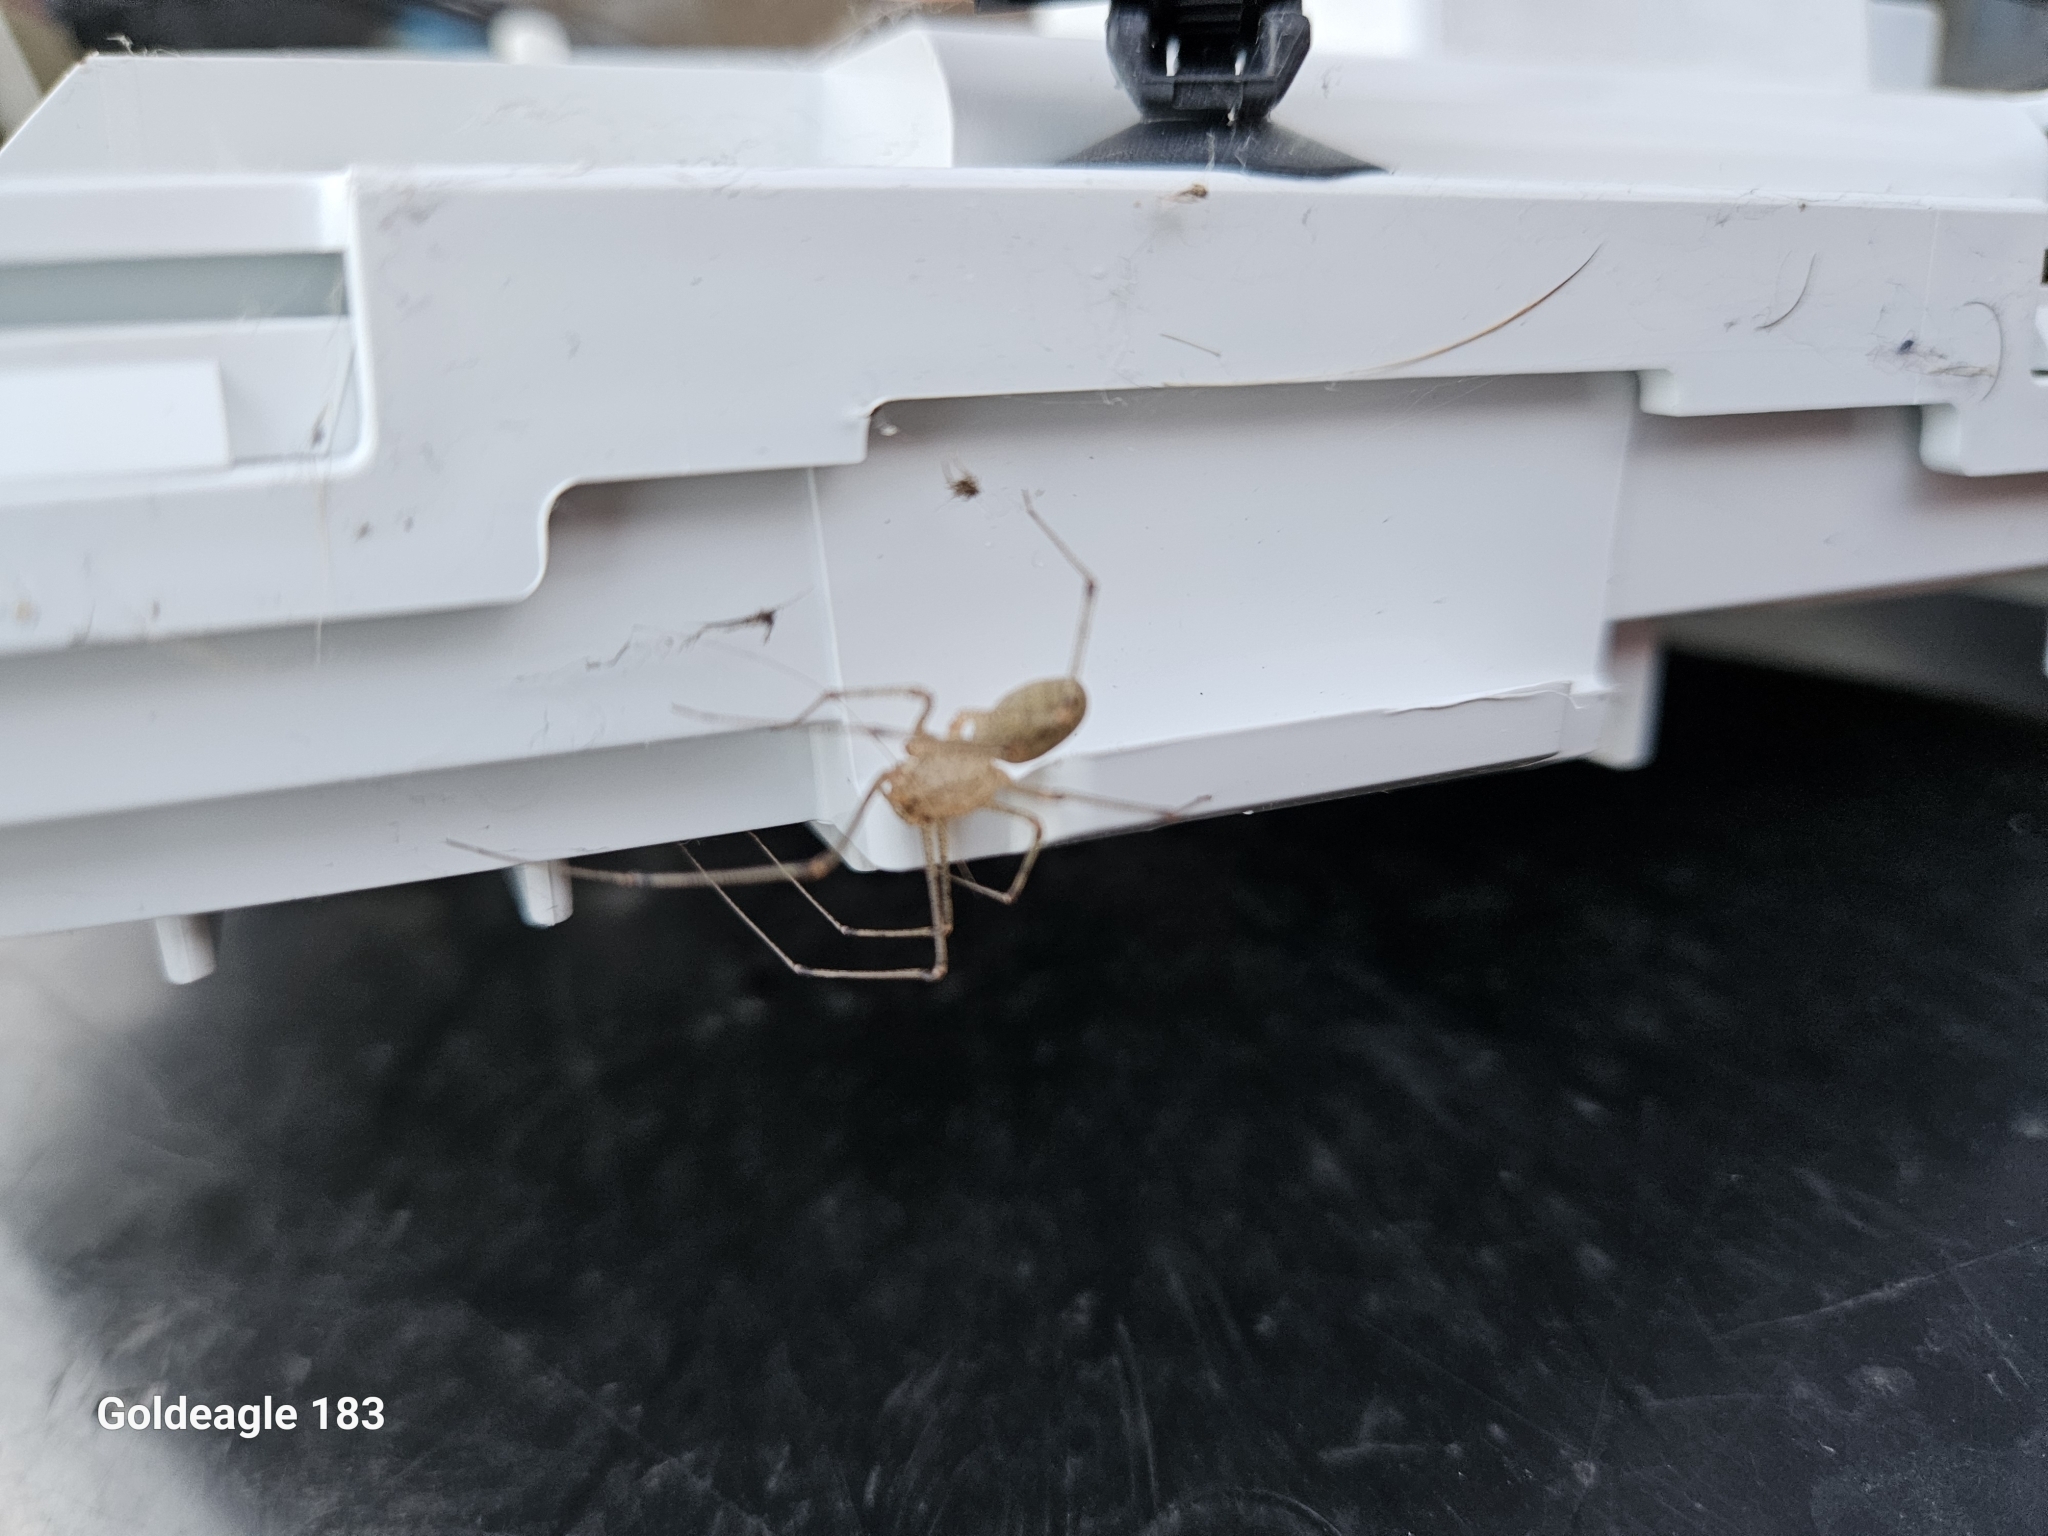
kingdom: Animalia
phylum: Arthropoda
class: Arachnida
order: Araneae
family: Scytodidae
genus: Scytodes
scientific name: Scytodes atlacoya
